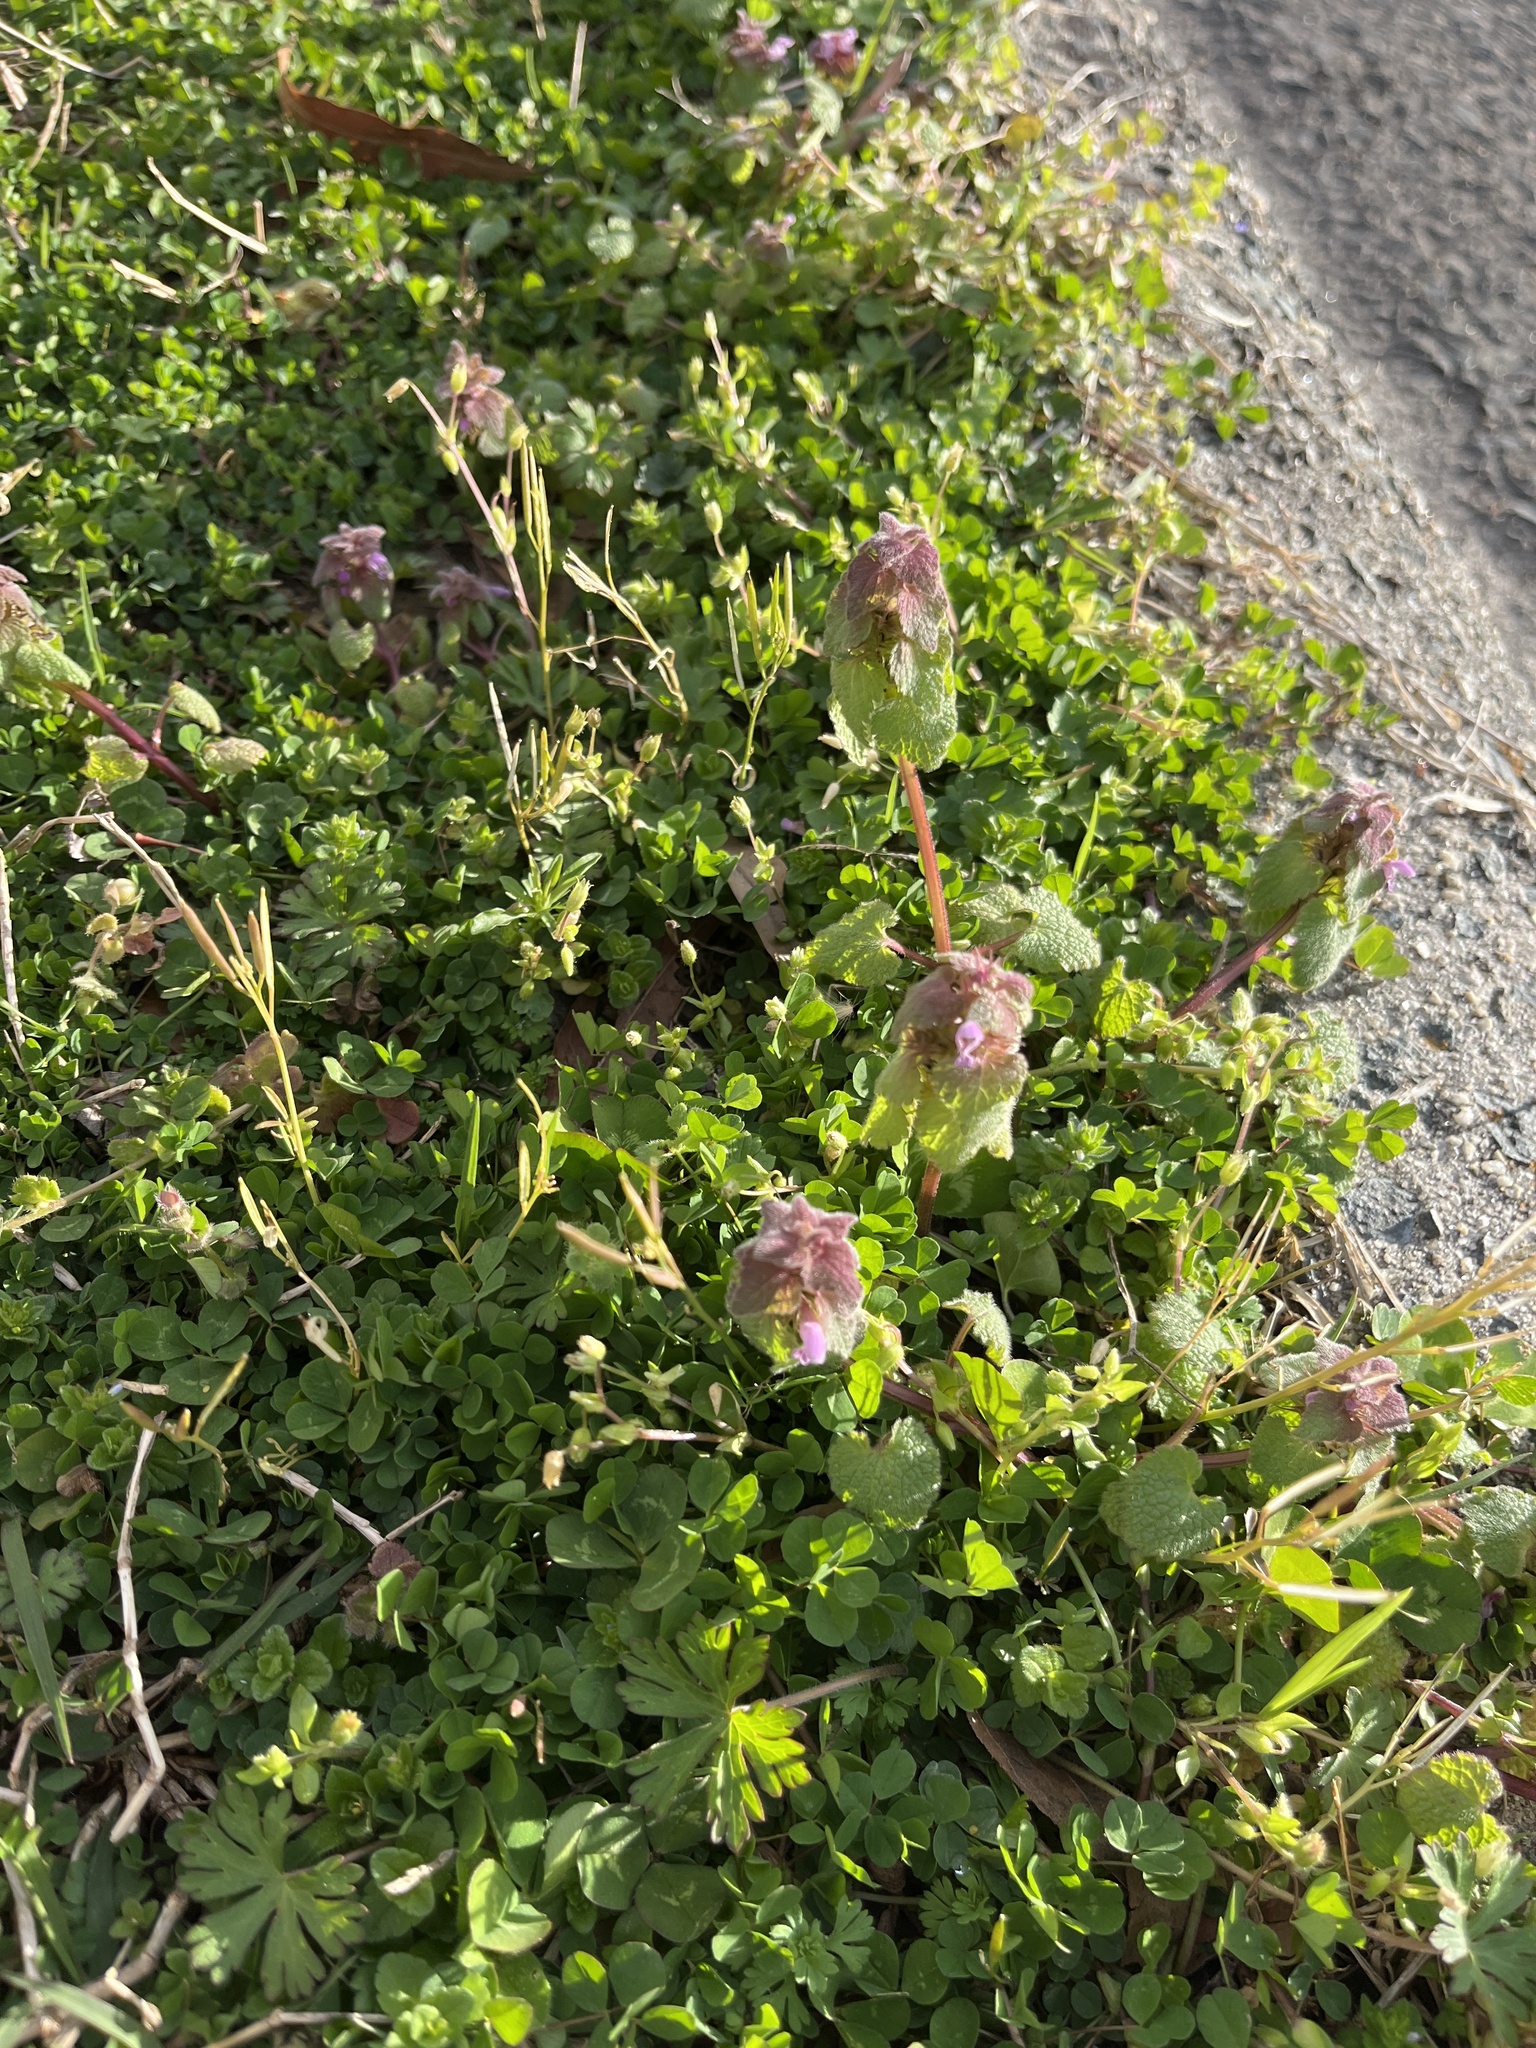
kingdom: Plantae
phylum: Tracheophyta
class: Magnoliopsida
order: Lamiales
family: Lamiaceae
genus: Lamium
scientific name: Lamium purpureum
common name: Red dead-nettle
